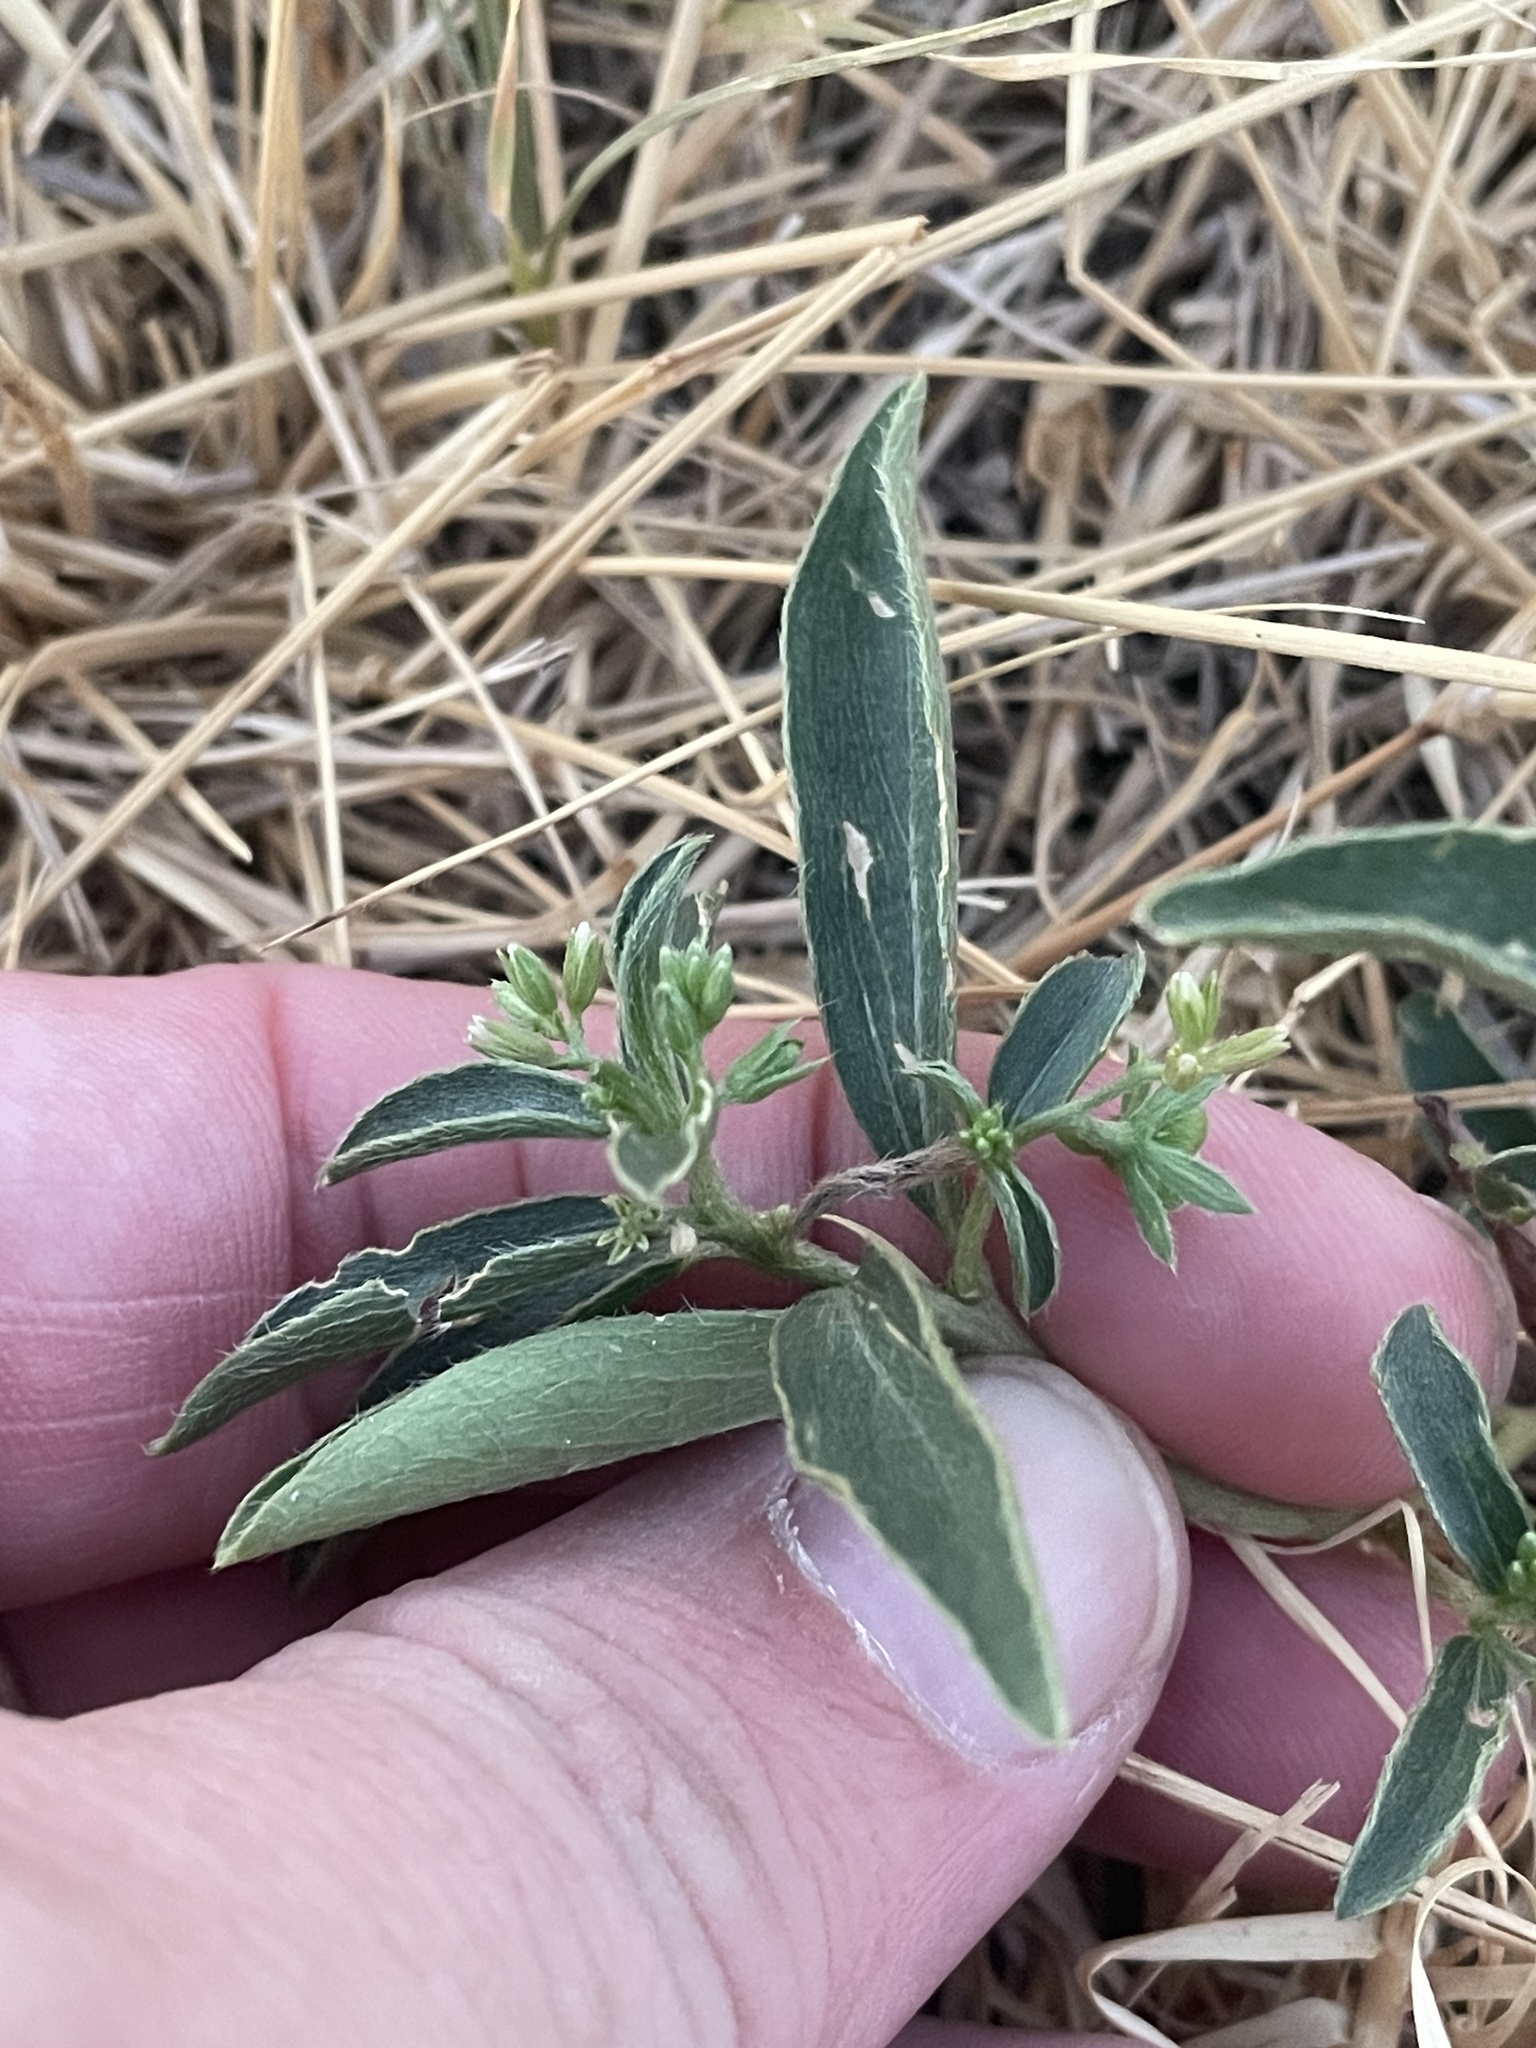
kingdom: Plantae
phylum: Tracheophyta
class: Magnoliopsida
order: Malpighiales
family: Euphorbiaceae
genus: Ditaxis
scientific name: Ditaxis humilis
